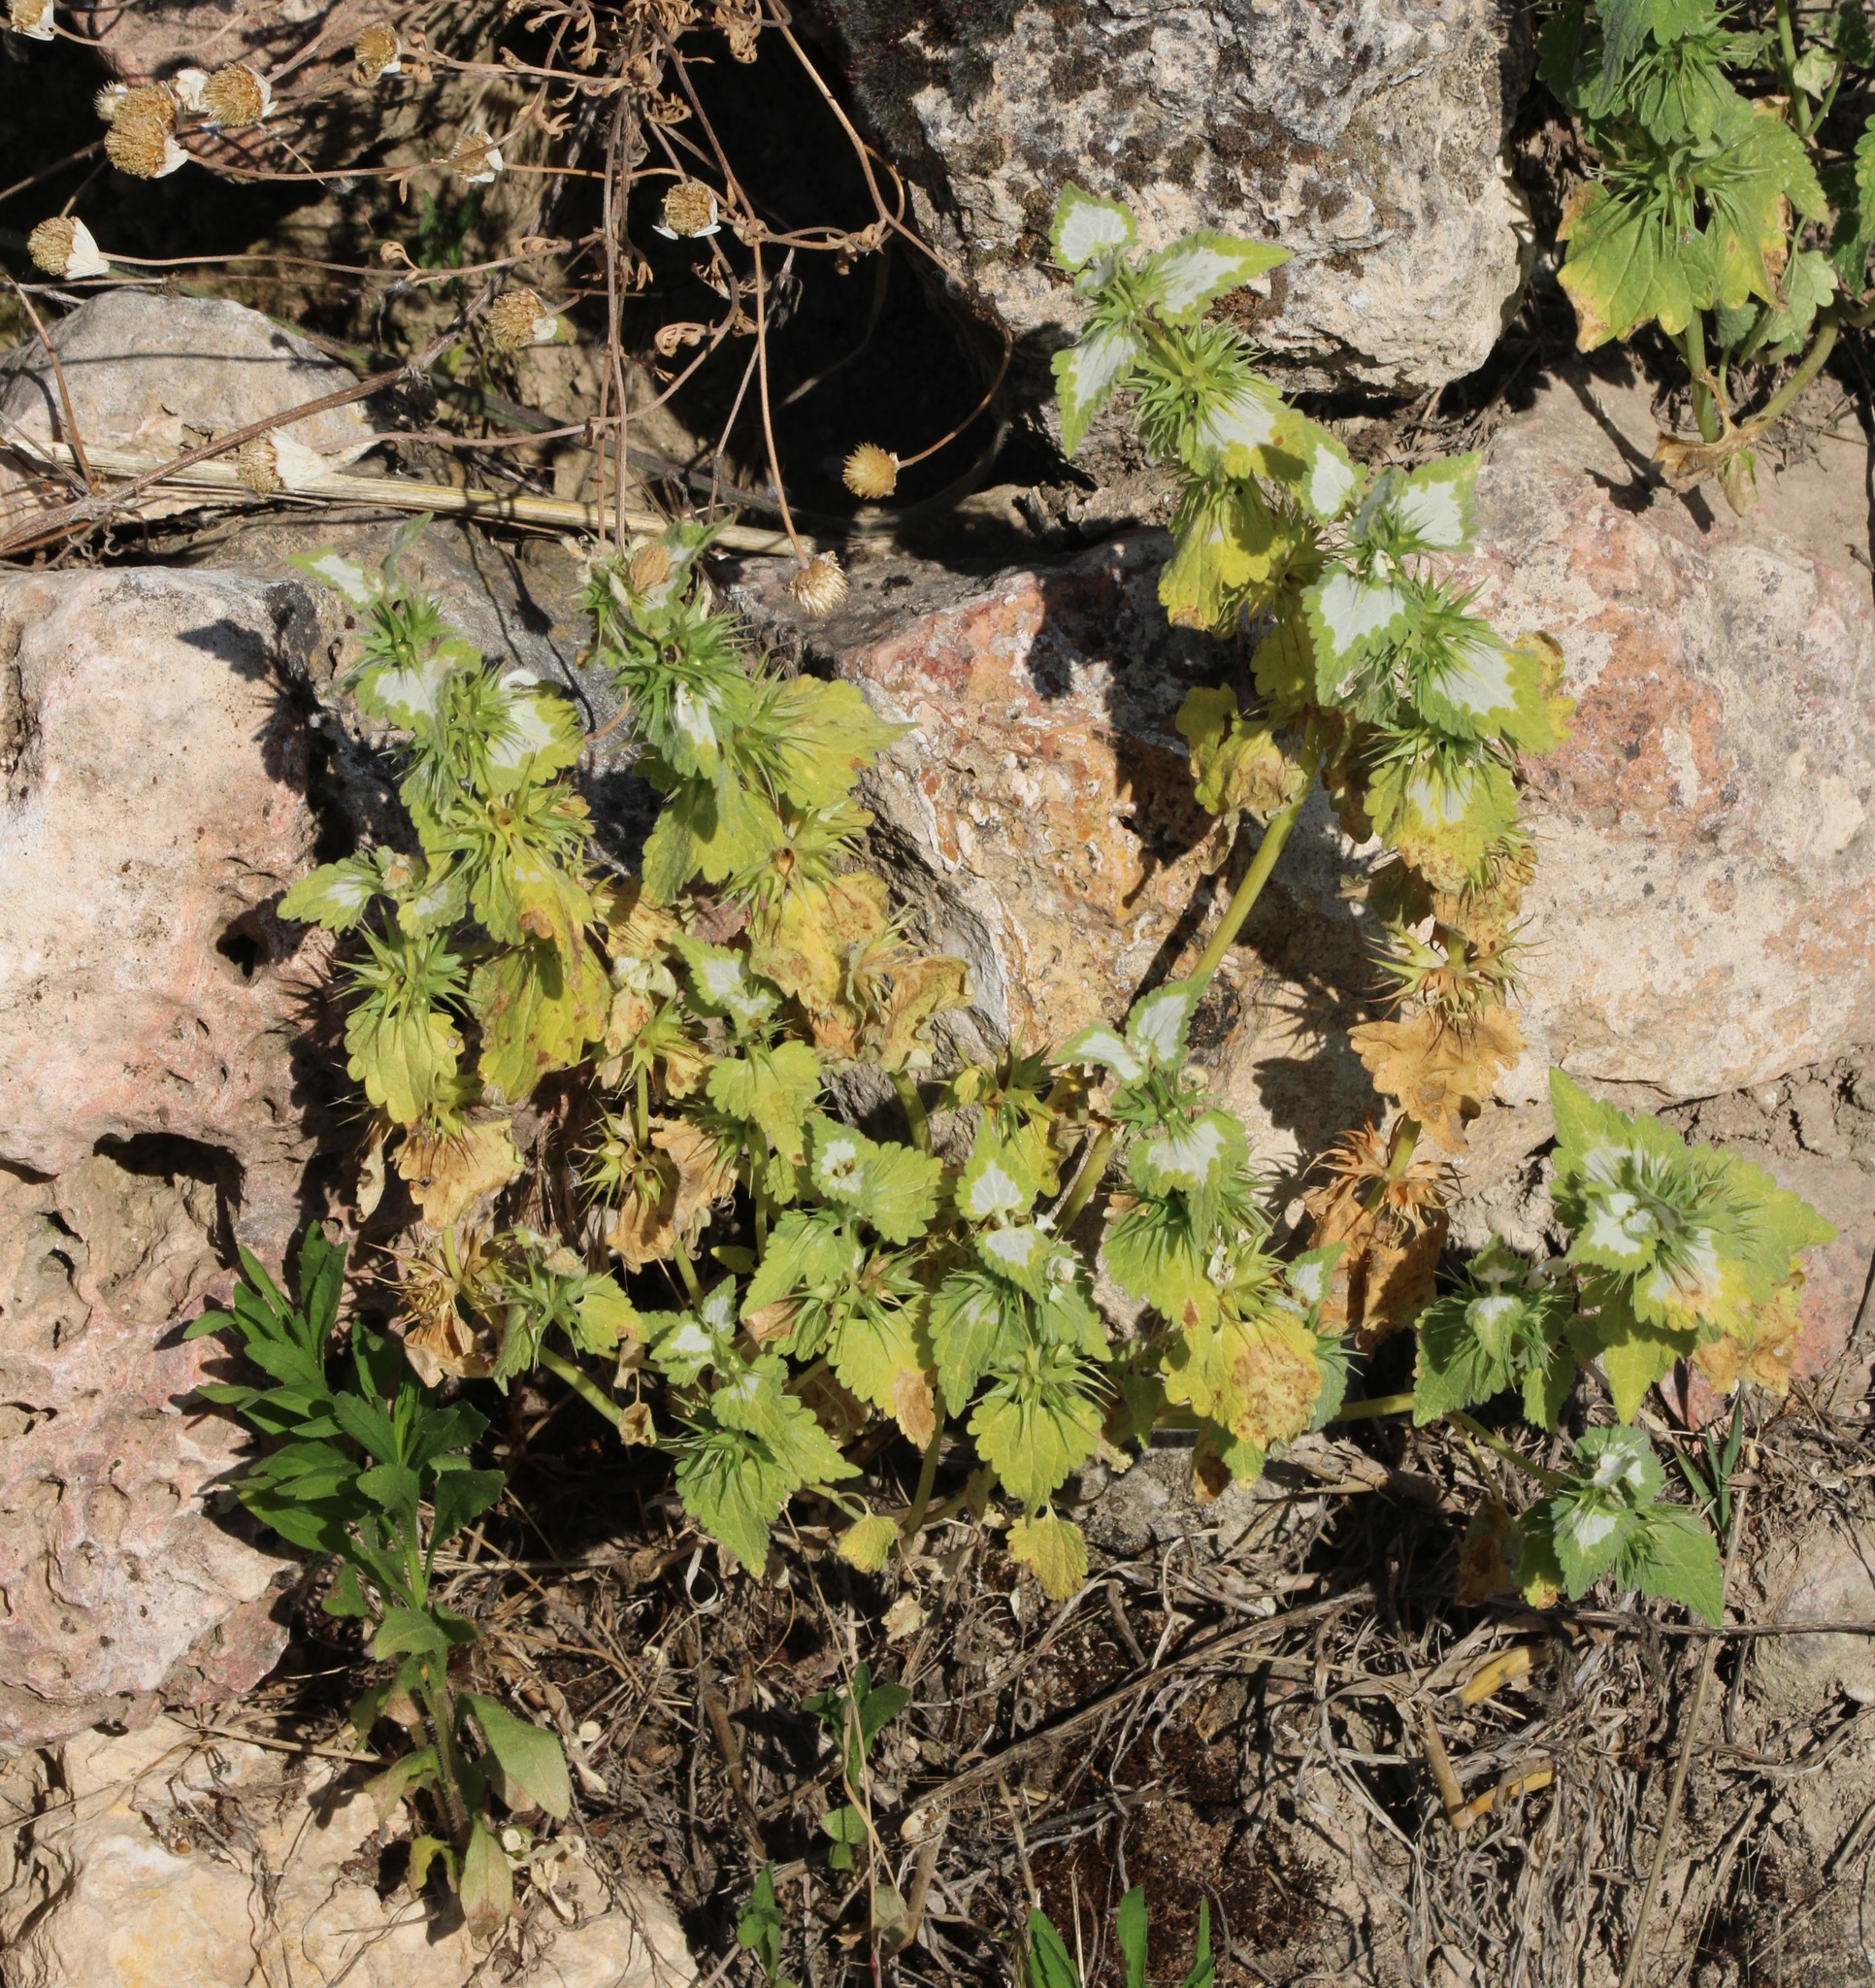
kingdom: Plantae
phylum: Tracheophyta
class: Magnoliopsida
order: Lamiales
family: Lamiaceae
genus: Lamium
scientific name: Lamium moschatum
